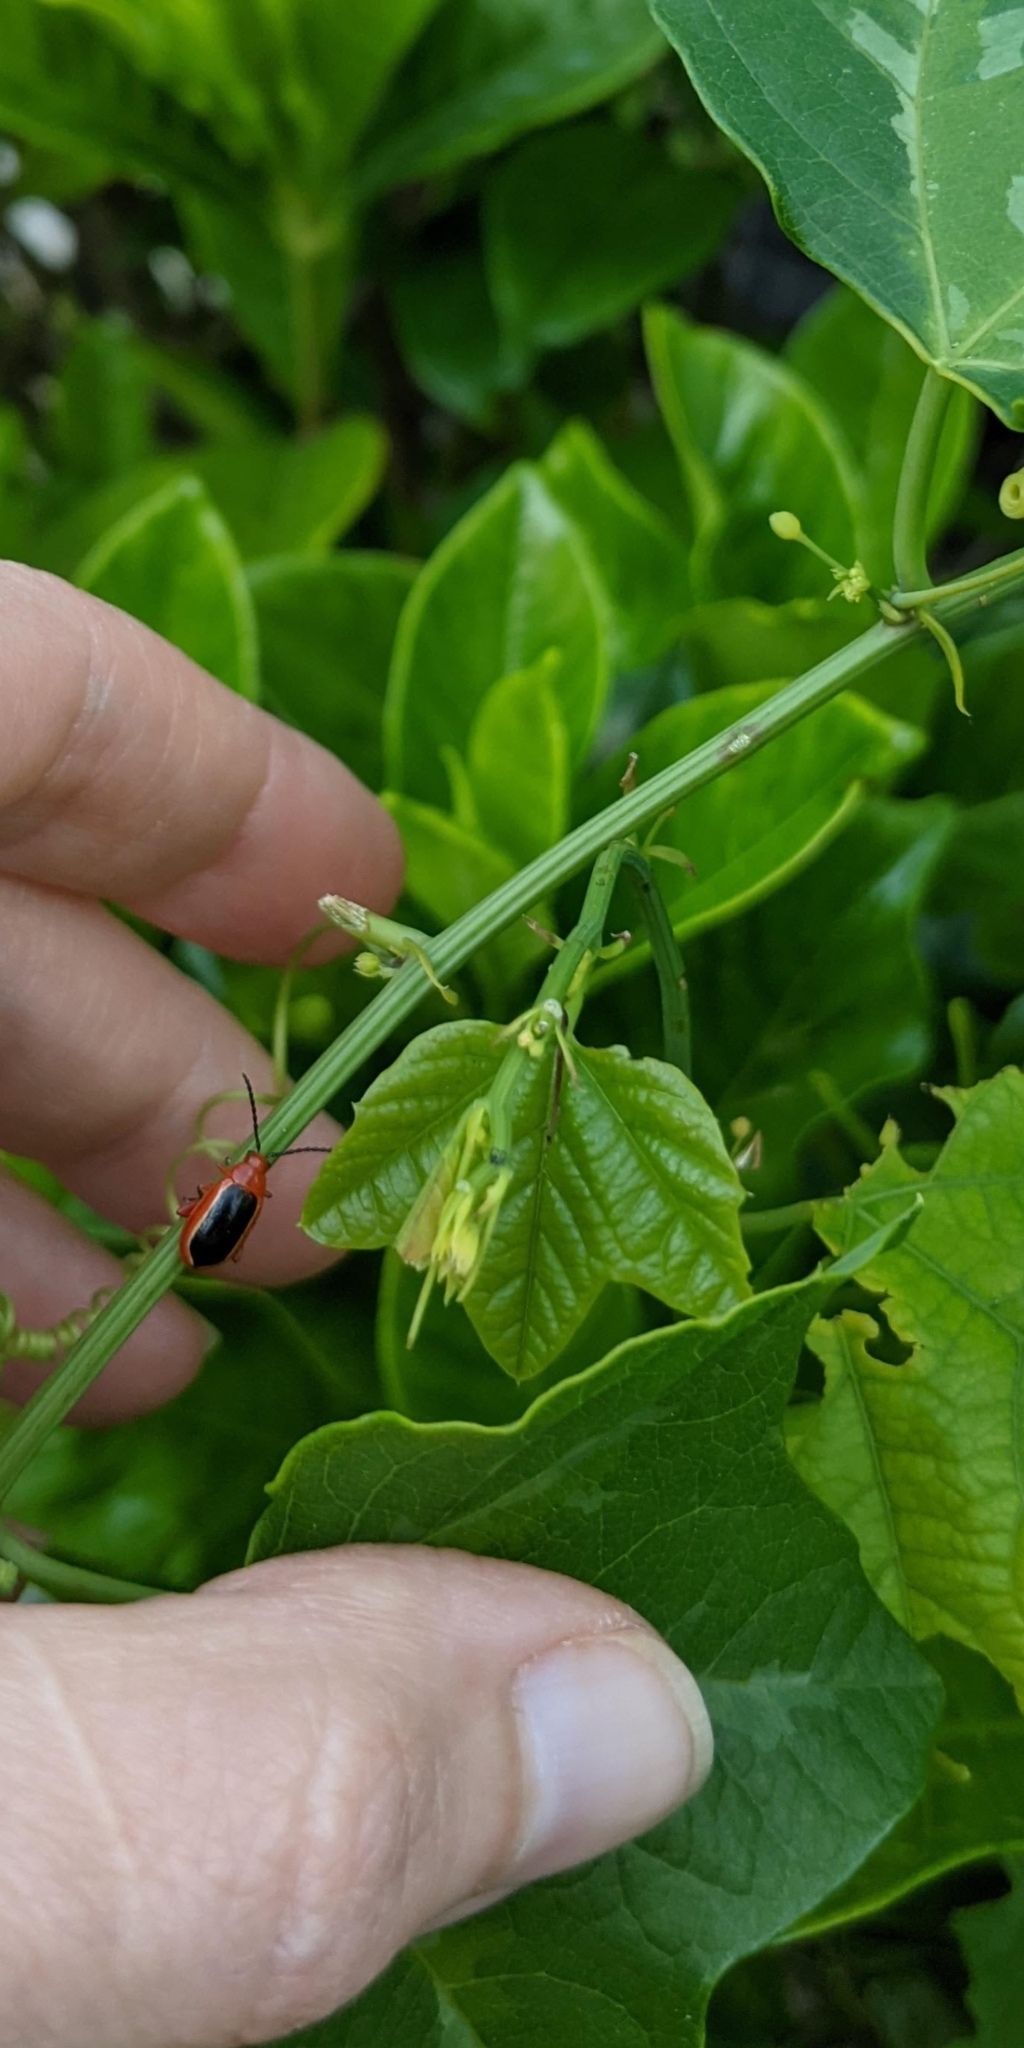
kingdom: Animalia
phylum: Arthropoda
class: Insecta
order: Coleoptera
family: Chrysomelidae
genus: Disonycha
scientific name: Disonycha discoidea
